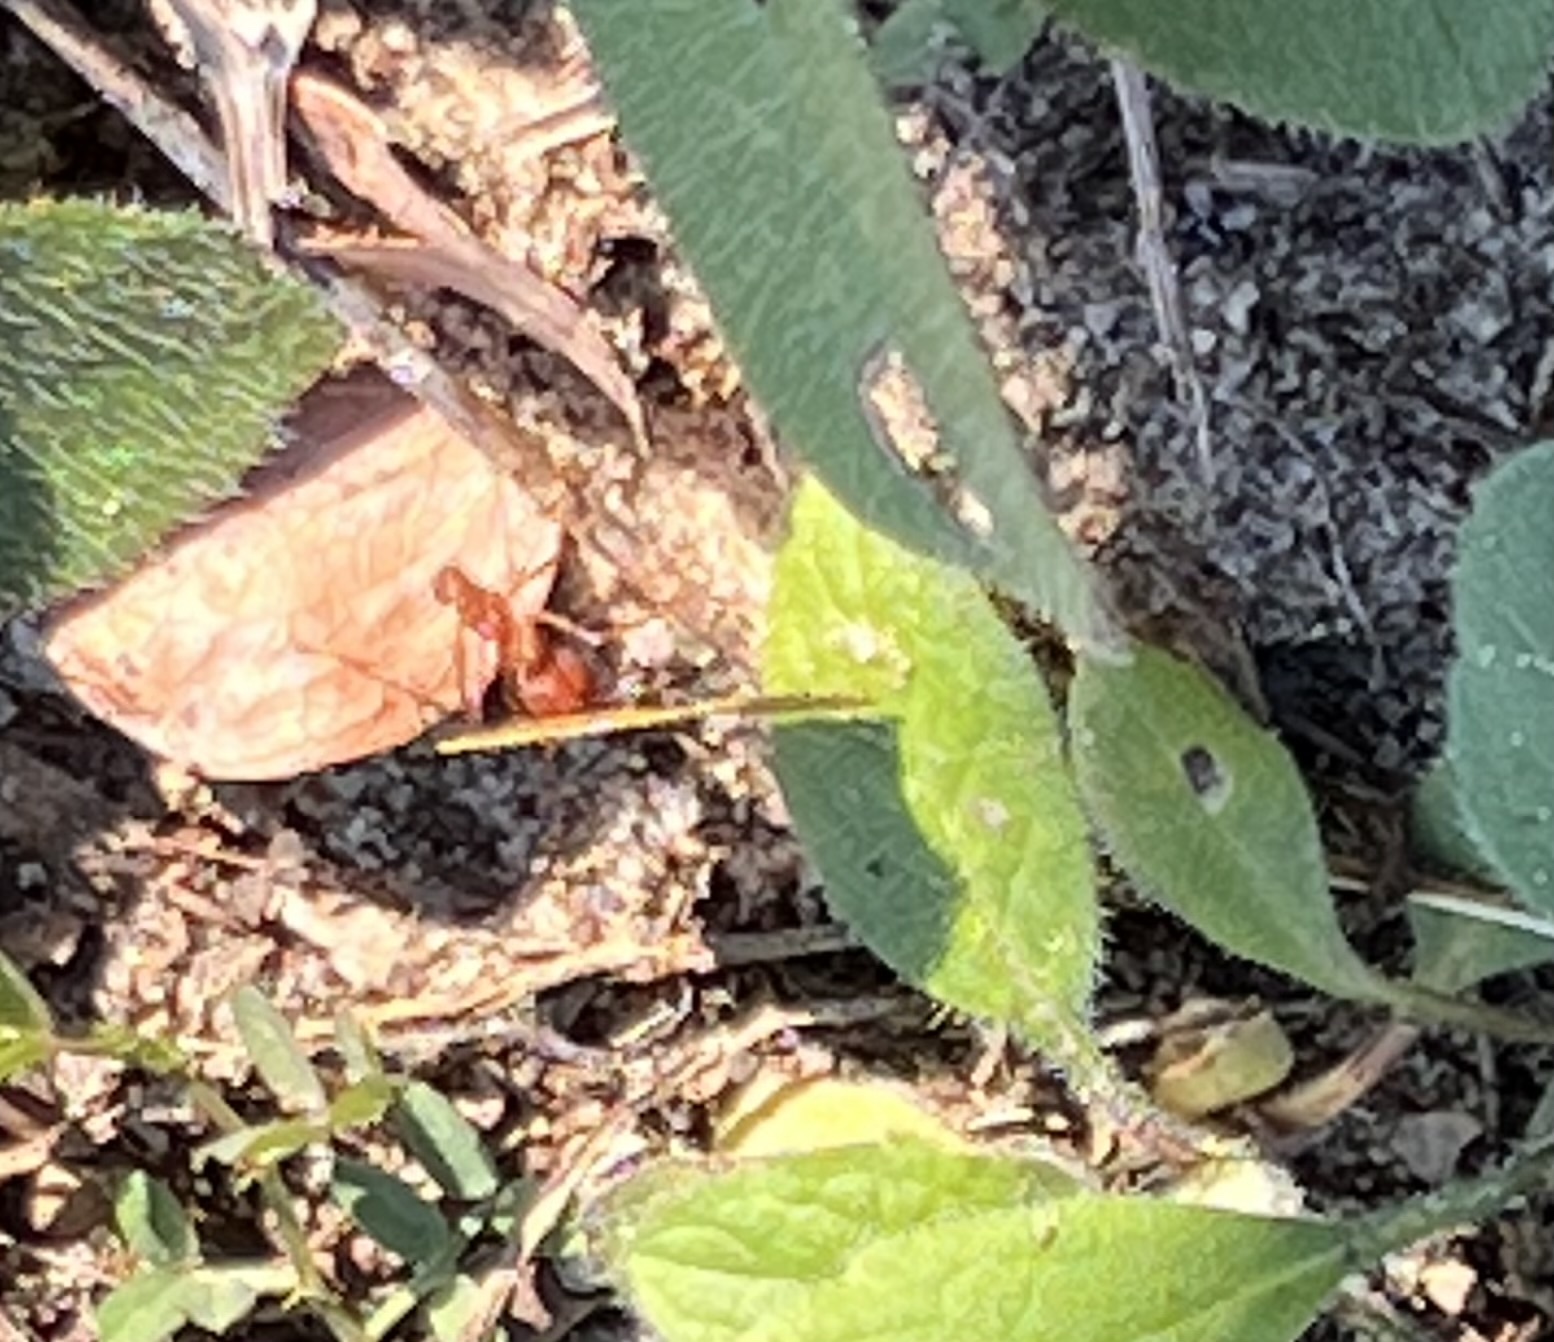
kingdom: Animalia
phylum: Arthropoda
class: Insecta
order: Hymenoptera
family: Formicidae
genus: Atta
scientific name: Atta texana
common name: Texas leafcutting ant
